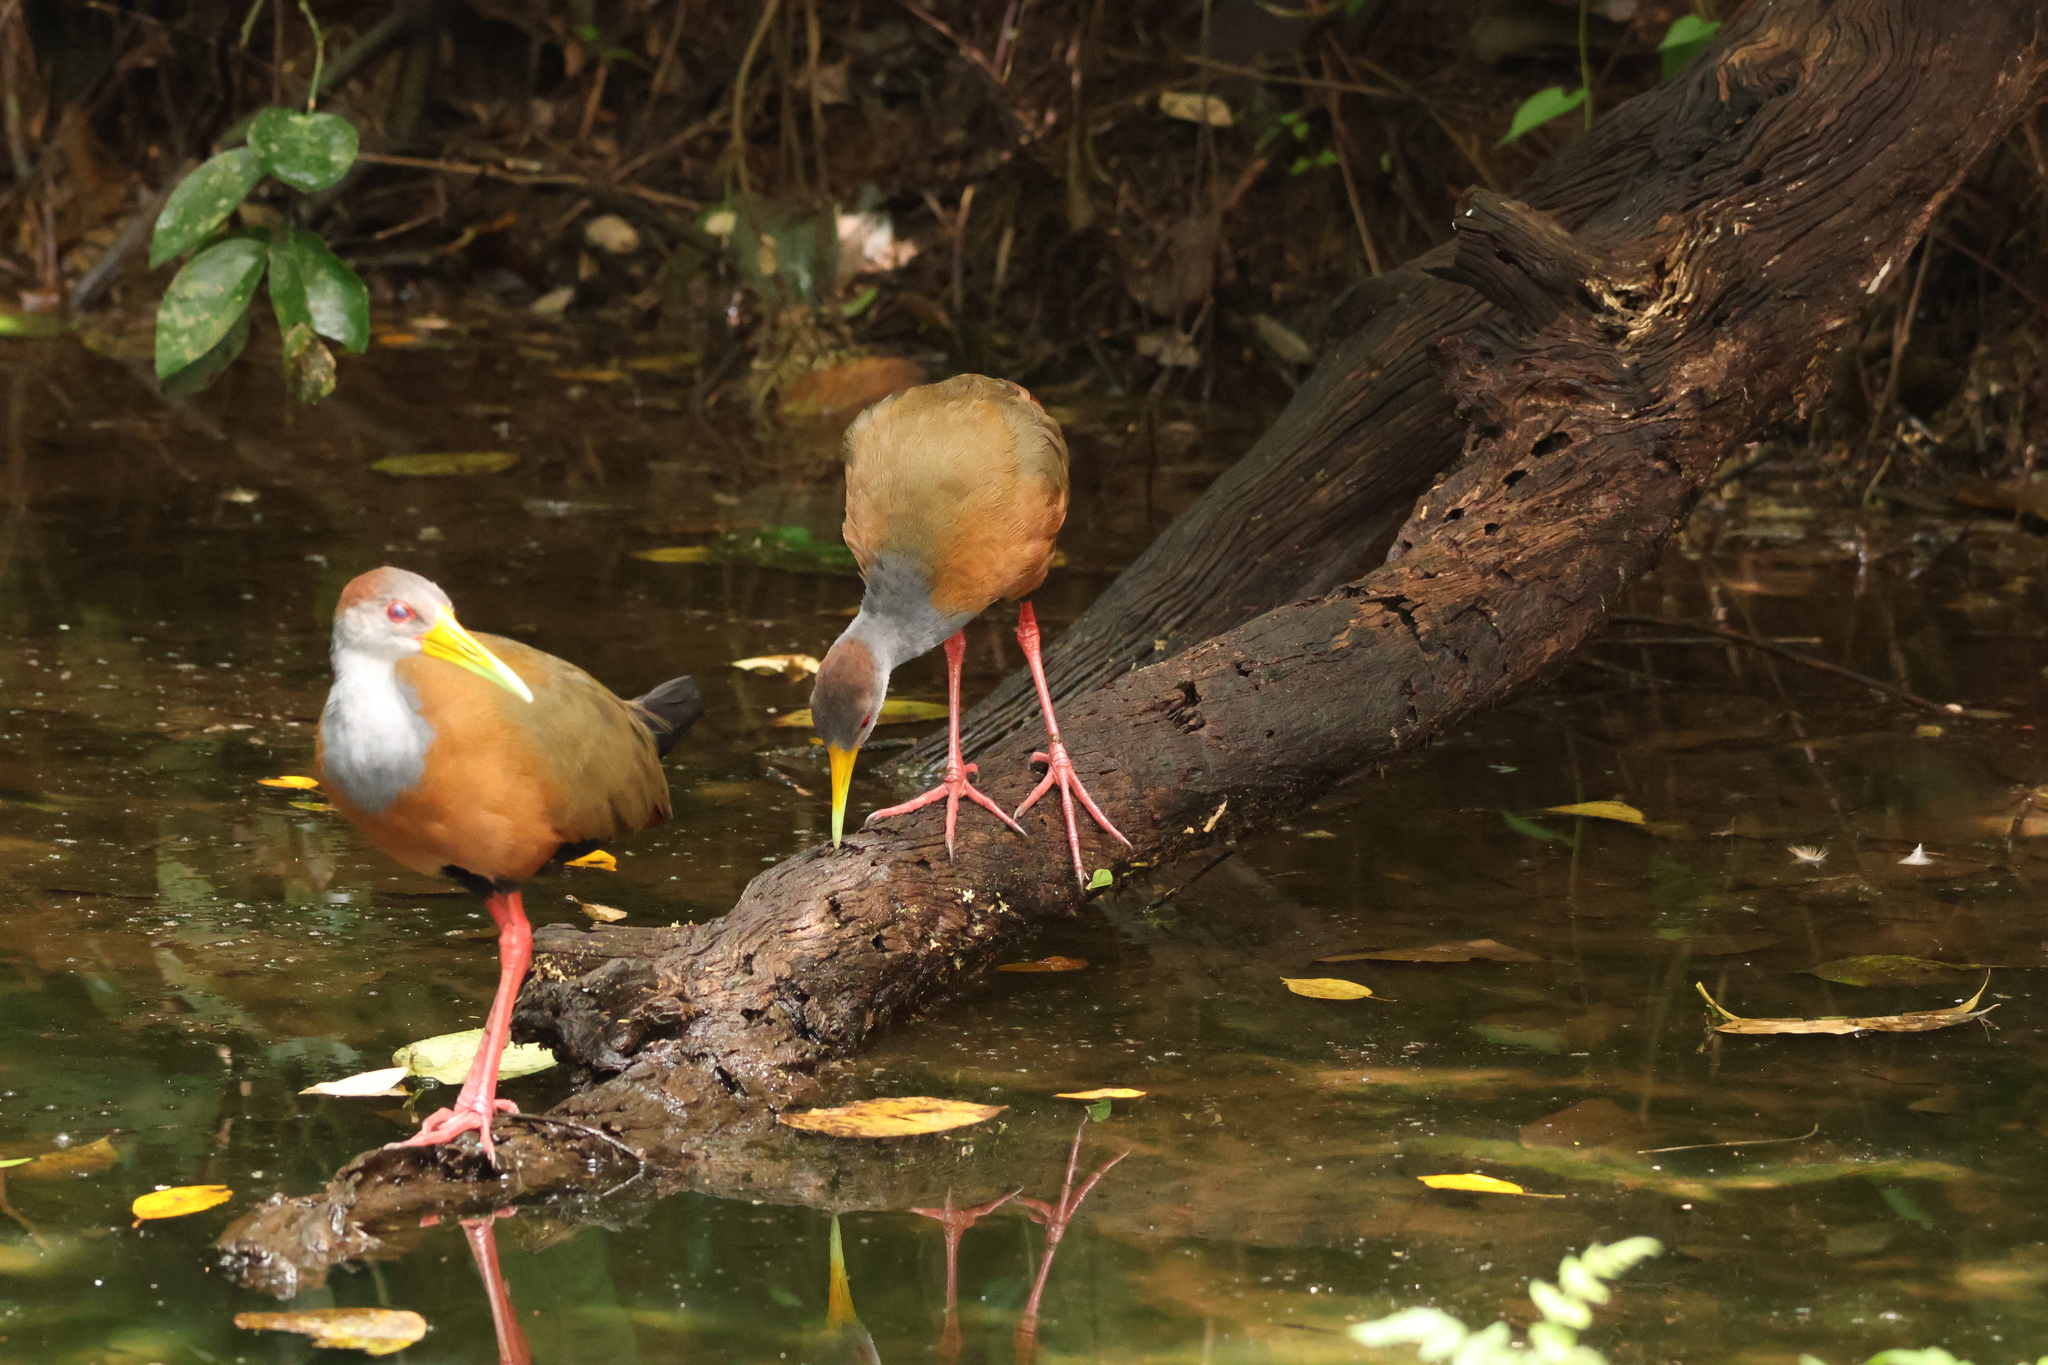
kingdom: Animalia
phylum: Chordata
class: Aves
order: Gruiformes
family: Rallidae
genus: Aramides
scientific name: Aramides albiventris
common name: Russet-naped wood-rail
